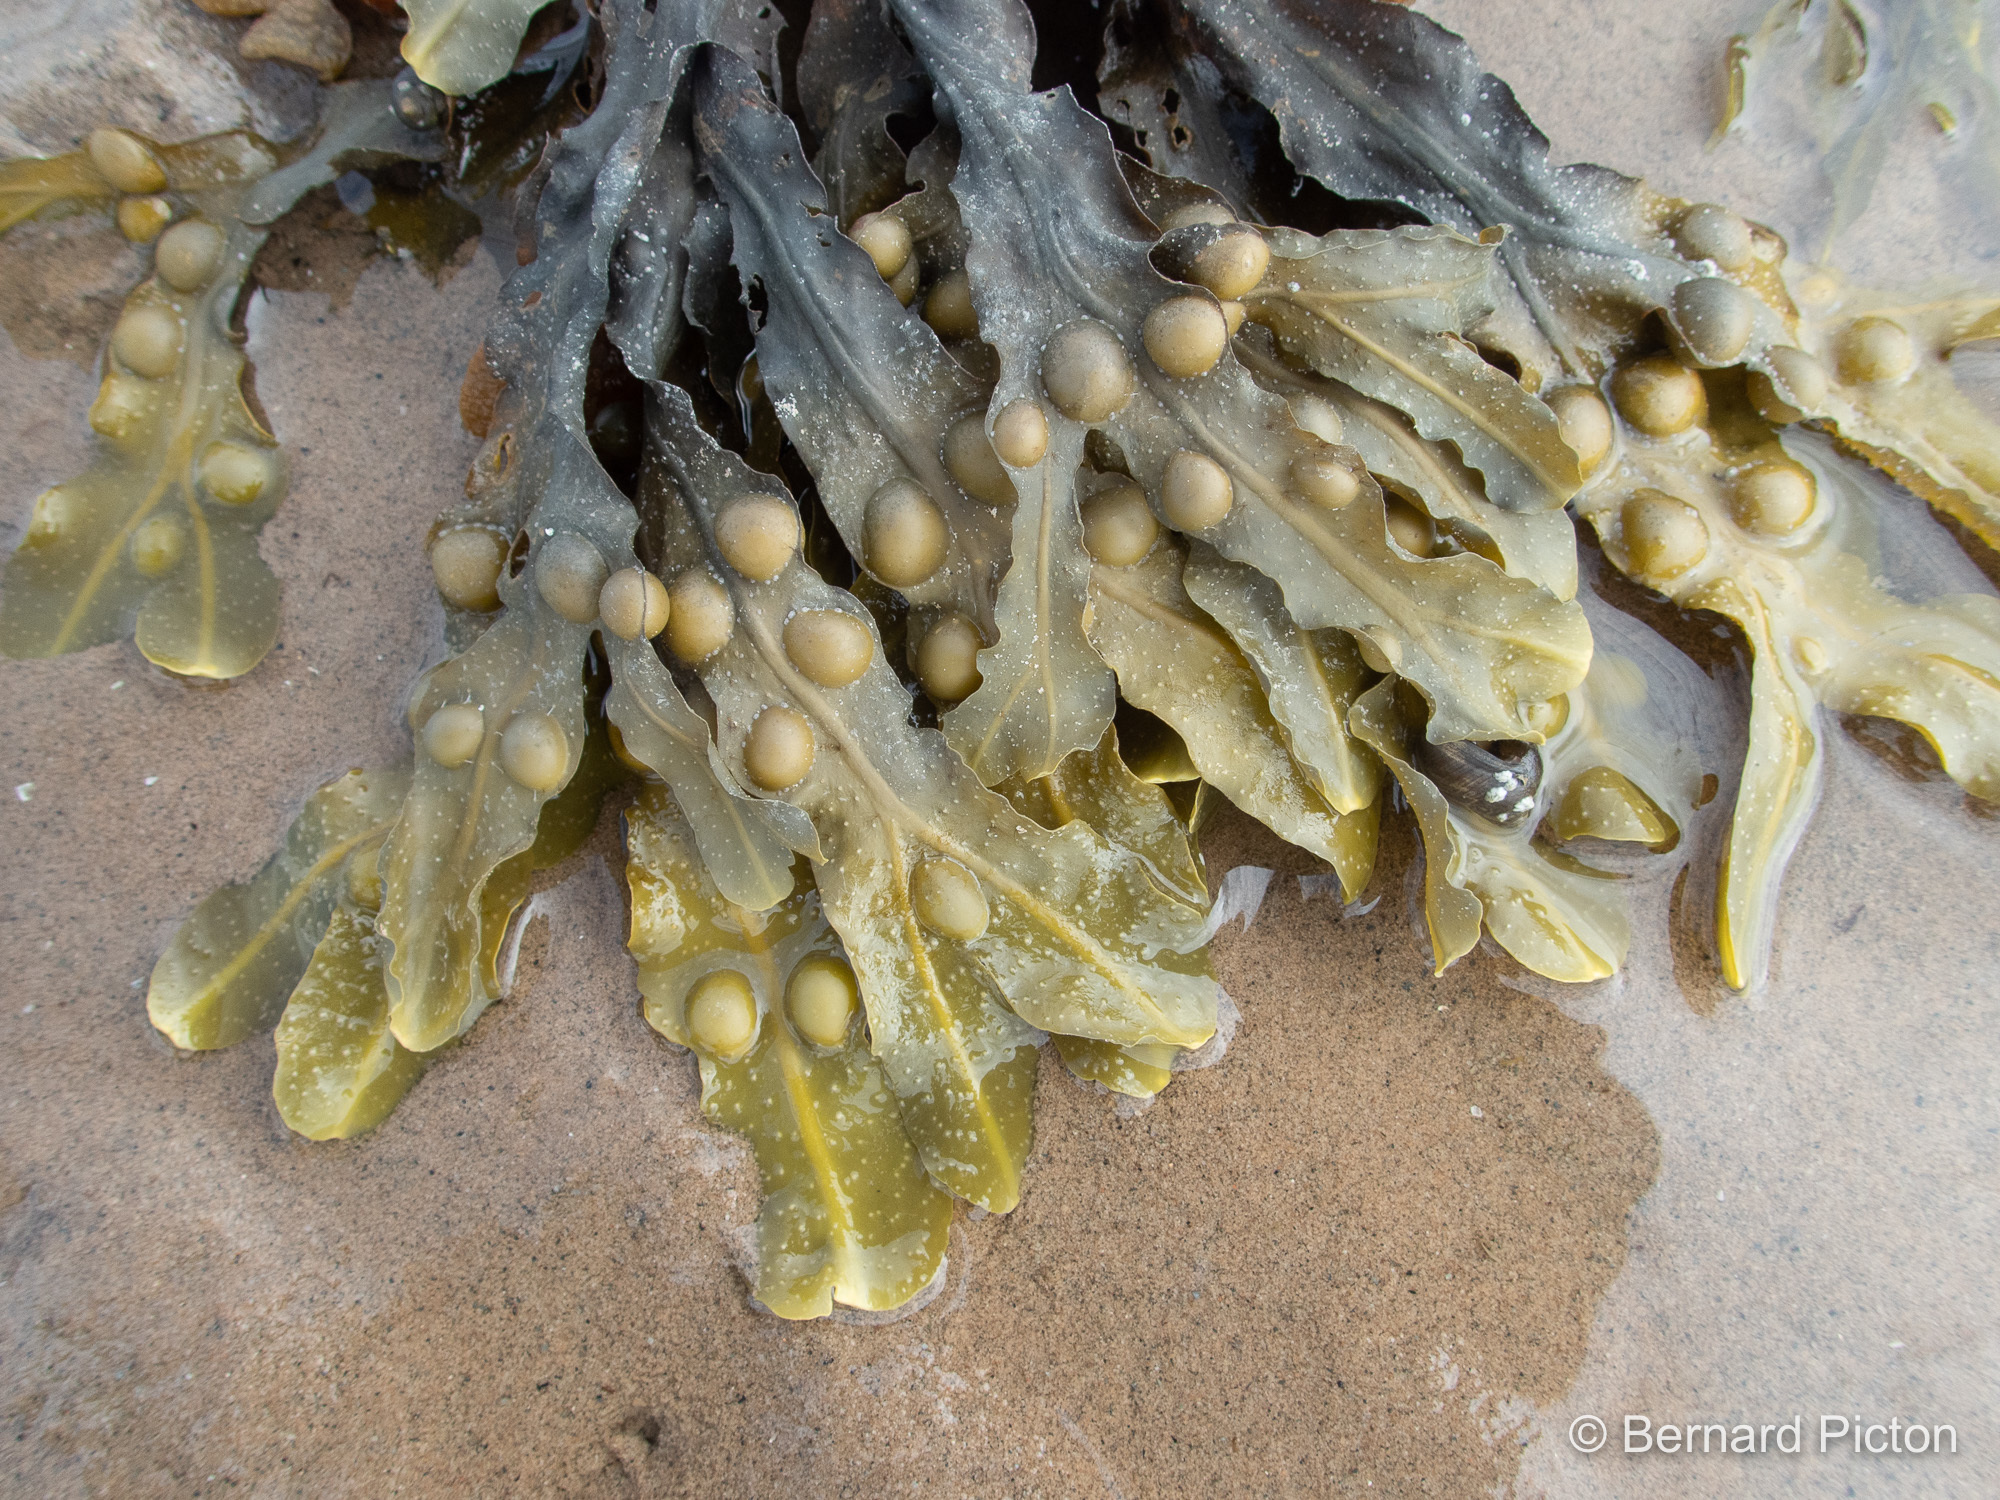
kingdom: Chromista
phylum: Ochrophyta
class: Phaeophyceae
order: Fucales
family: Fucaceae
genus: Fucus
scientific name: Fucus vesiculosus
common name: Bladder wrack
